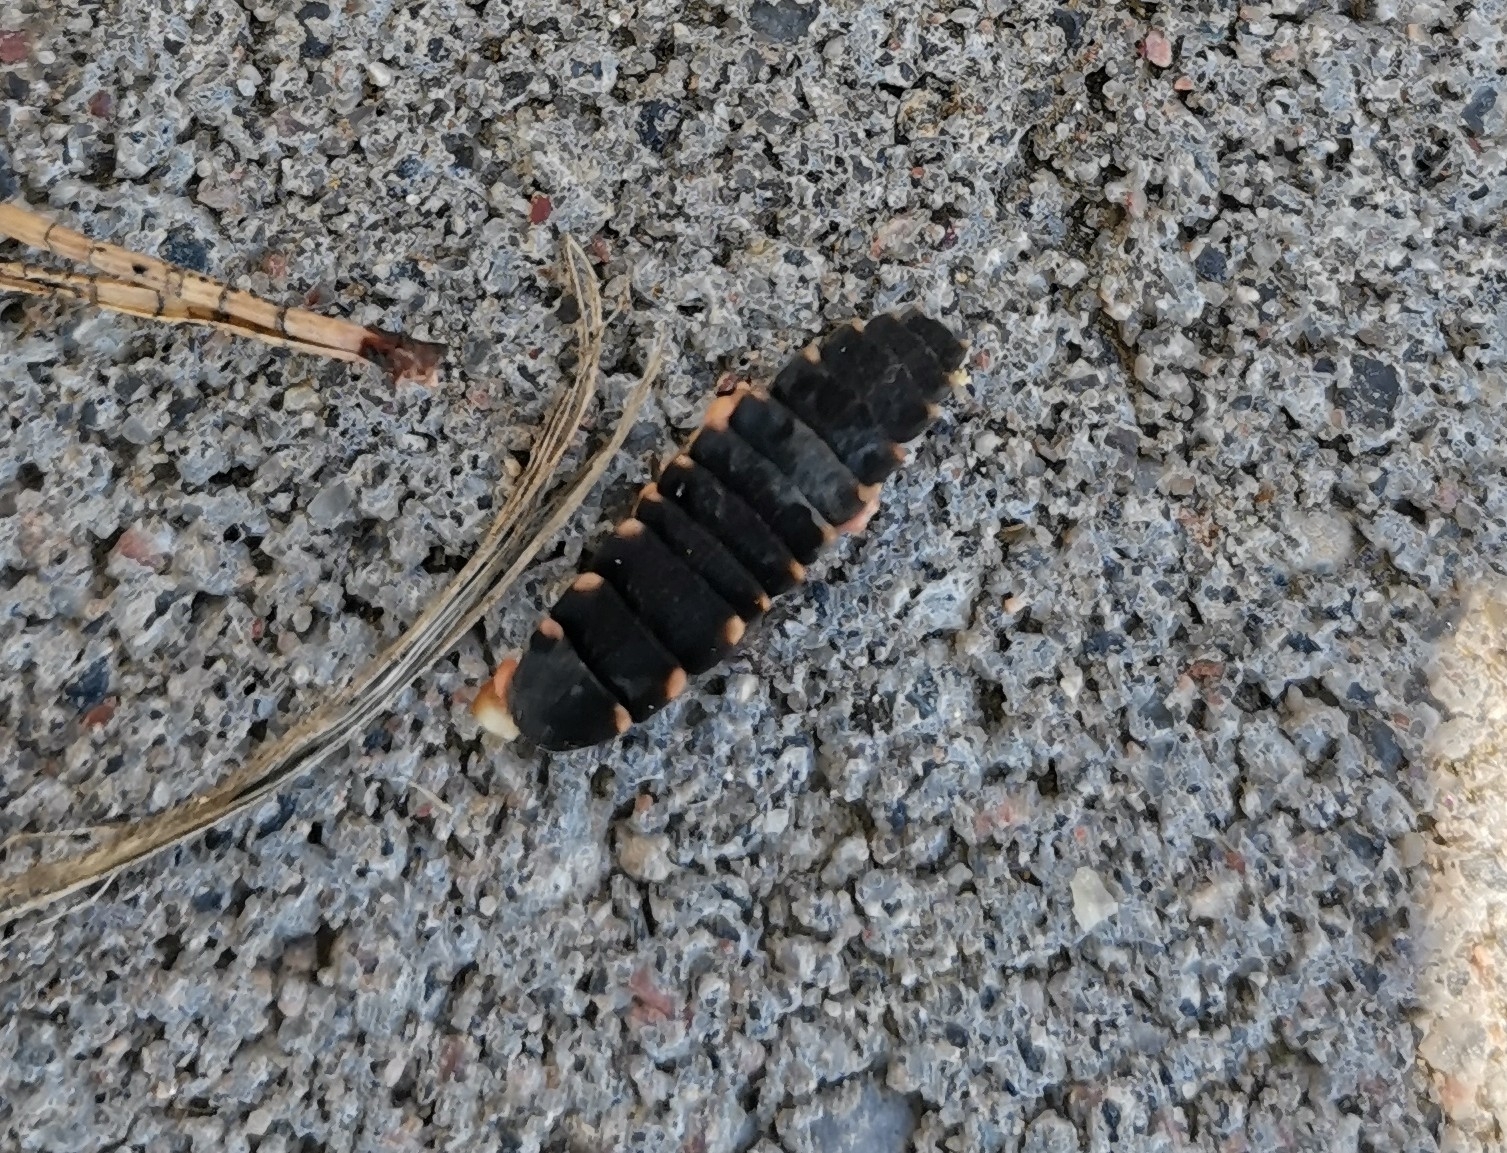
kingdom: Animalia
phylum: Arthropoda
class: Insecta
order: Coleoptera
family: Lampyridae
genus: Lampyris
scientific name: Lampyris noctiluca
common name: Glow-worm
